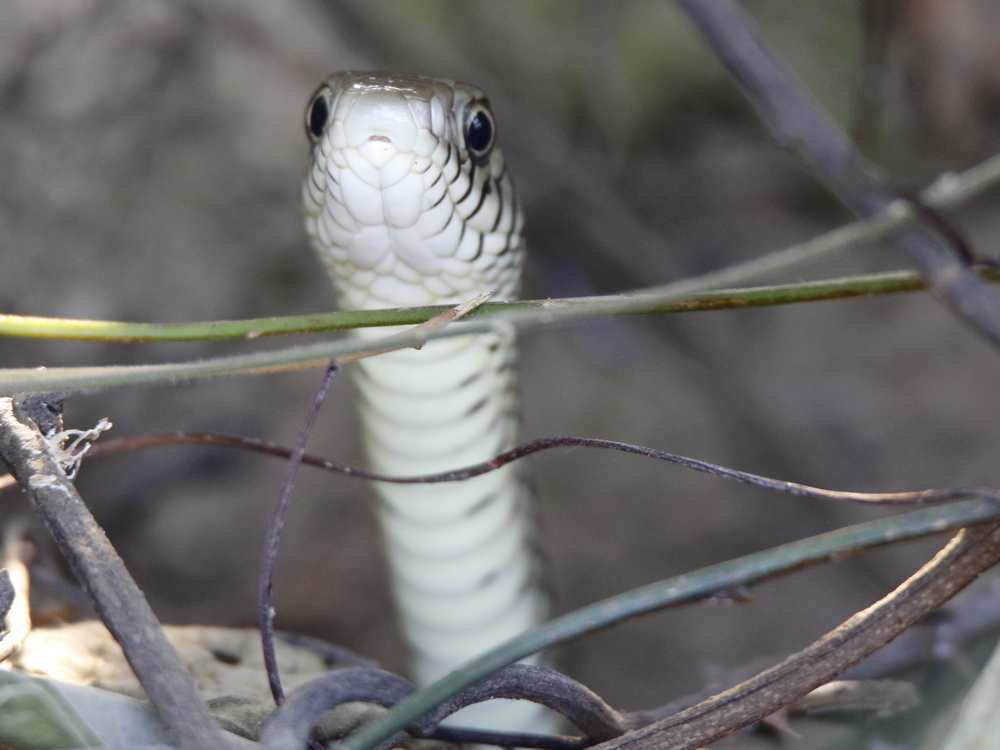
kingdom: Animalia
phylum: Chordata
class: Squamata
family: Colubridae
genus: Ptyas
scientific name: Ptyas mucosa
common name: Oriental ratsnake
